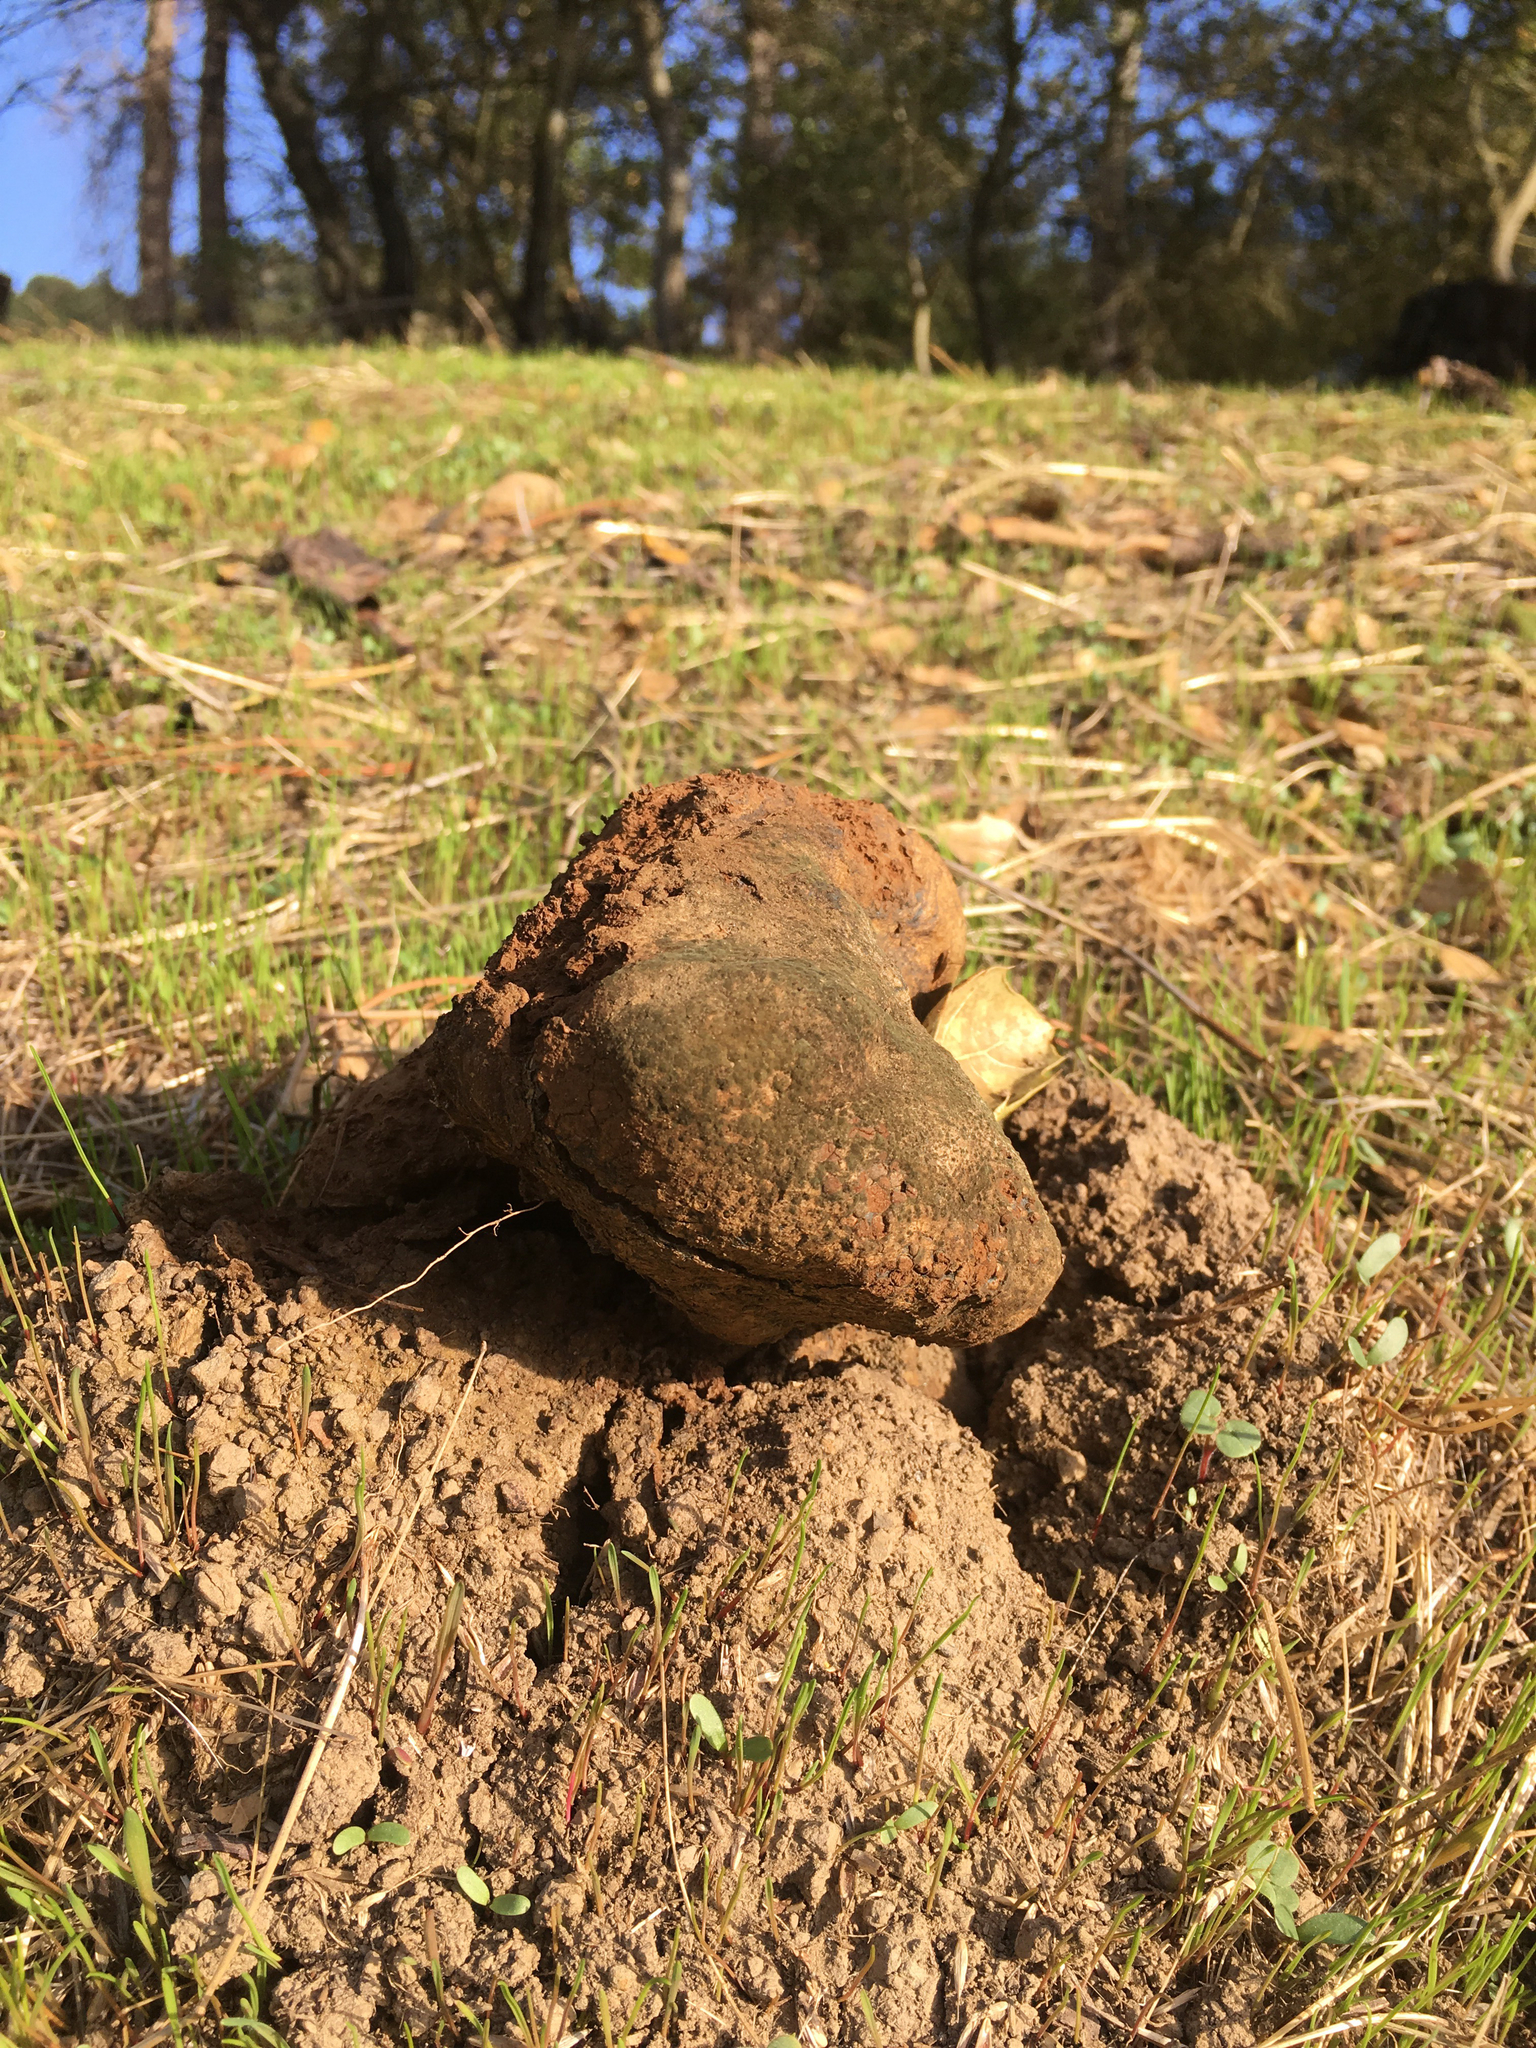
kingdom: Fungi
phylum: Basidiomycota
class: Agaricomycetes
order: Boletales
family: Sclerodermataceae
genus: Pisolithus
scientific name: Pisolithus arhizus
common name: Dyeball
